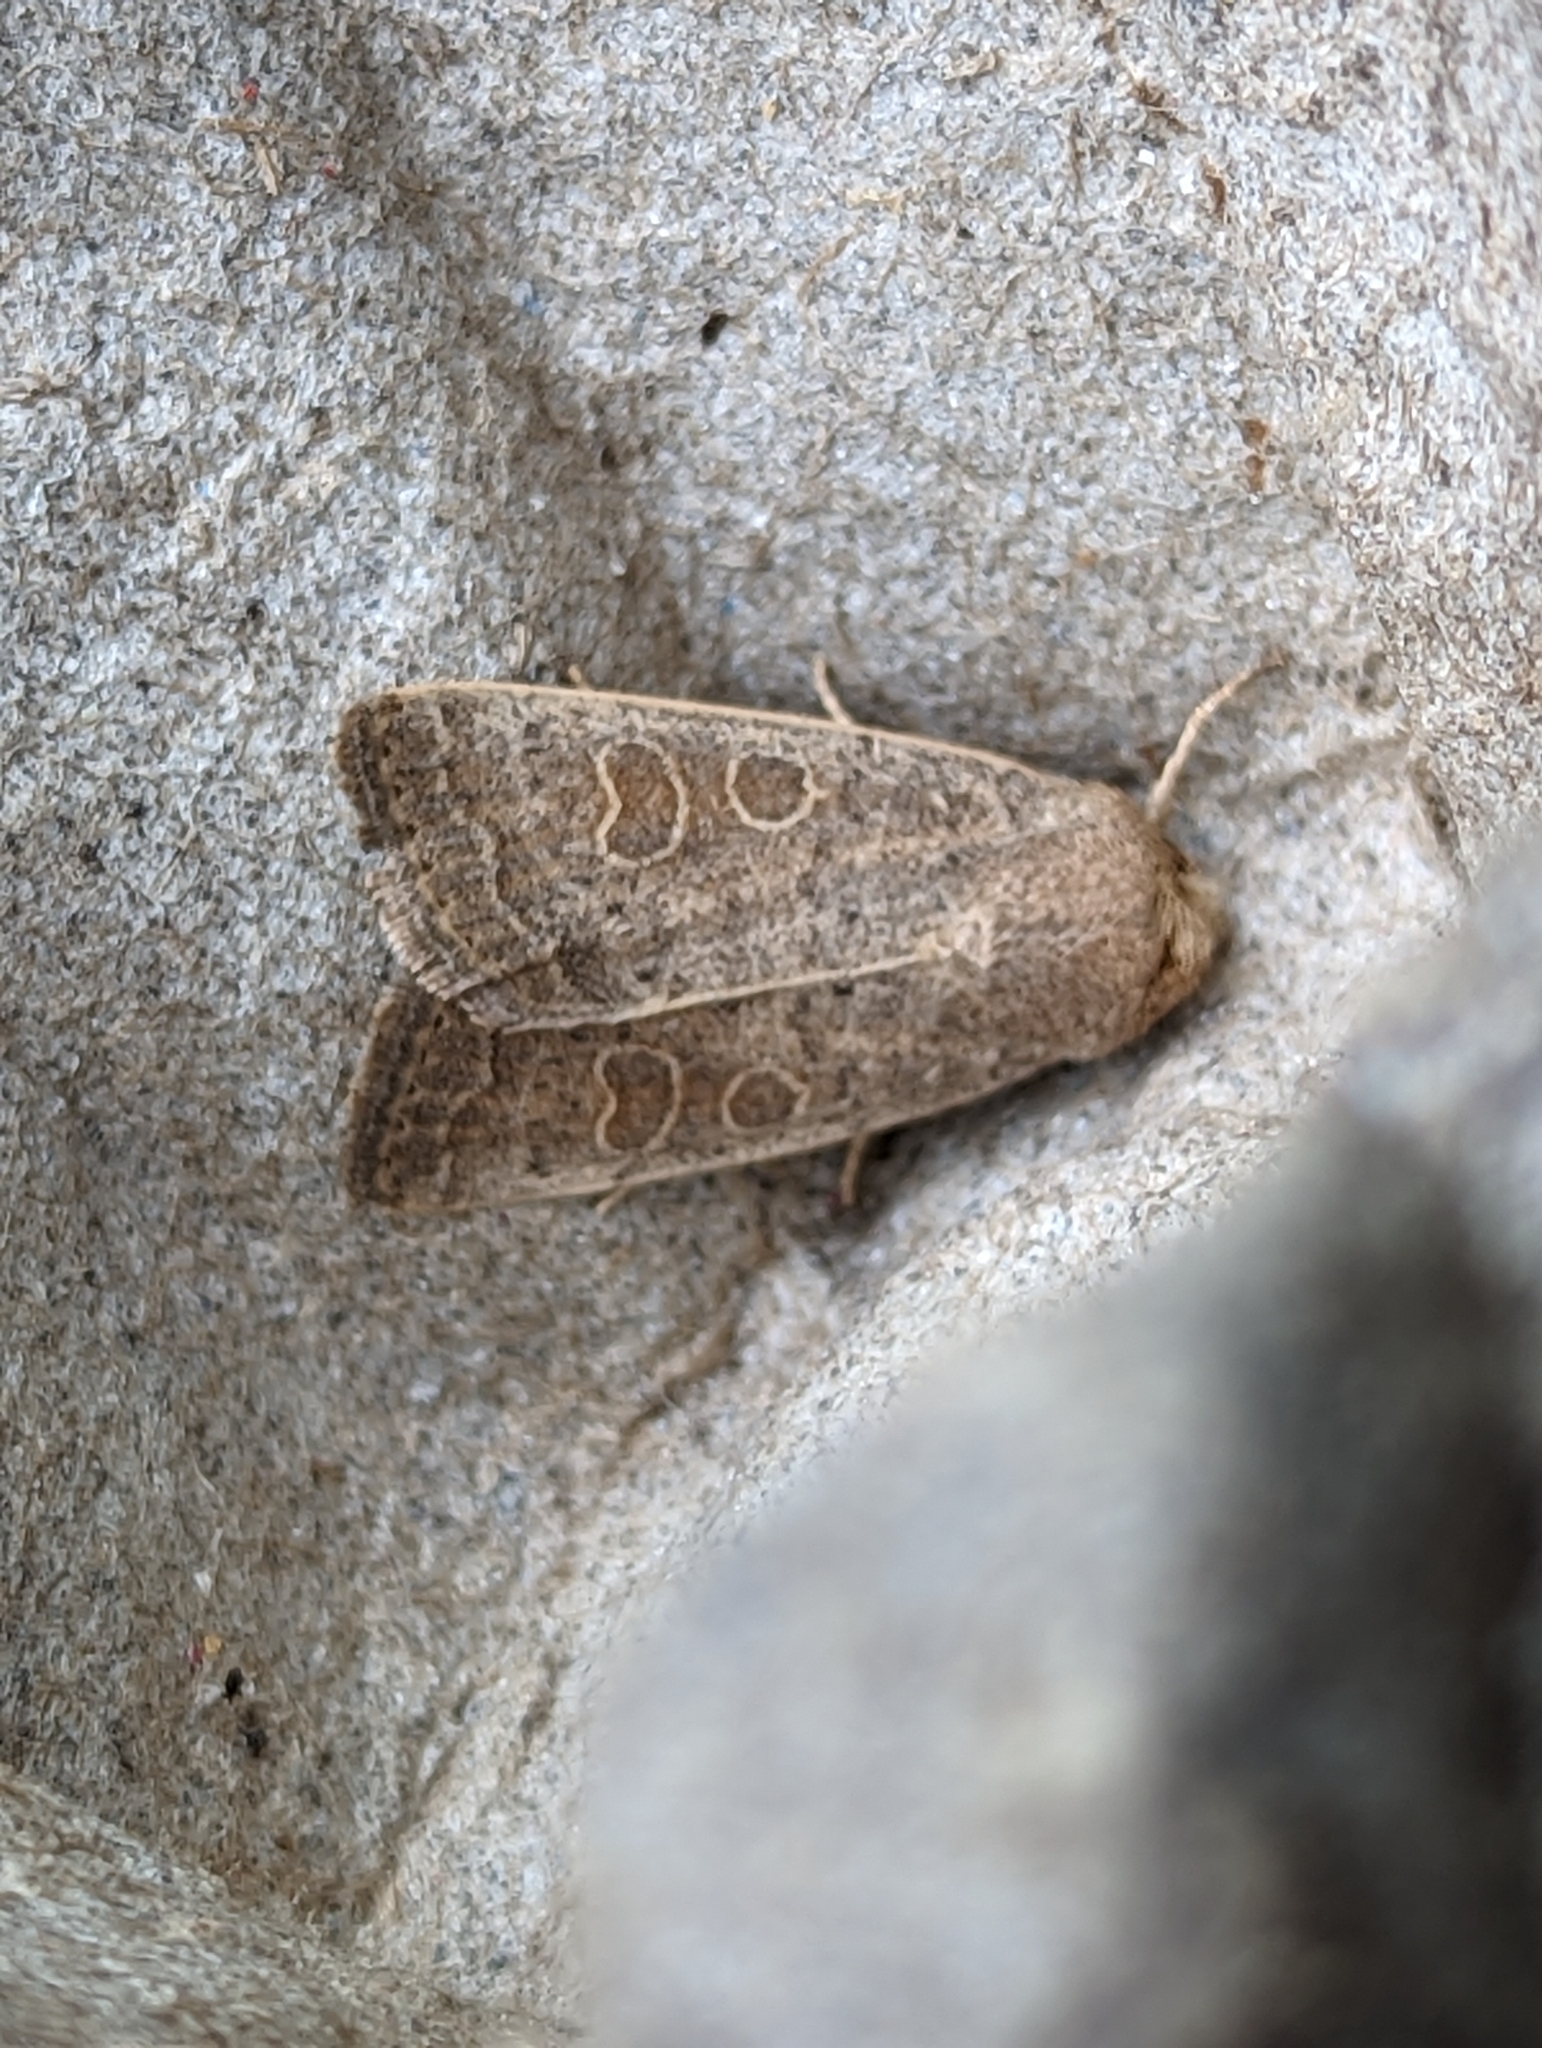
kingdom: Animalia
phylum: Arthropoda
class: Insecta
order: Lepidoptera
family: Noctuidae
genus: Hoplodrina
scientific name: Hoplodrina ambigua
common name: Vine's rustic
